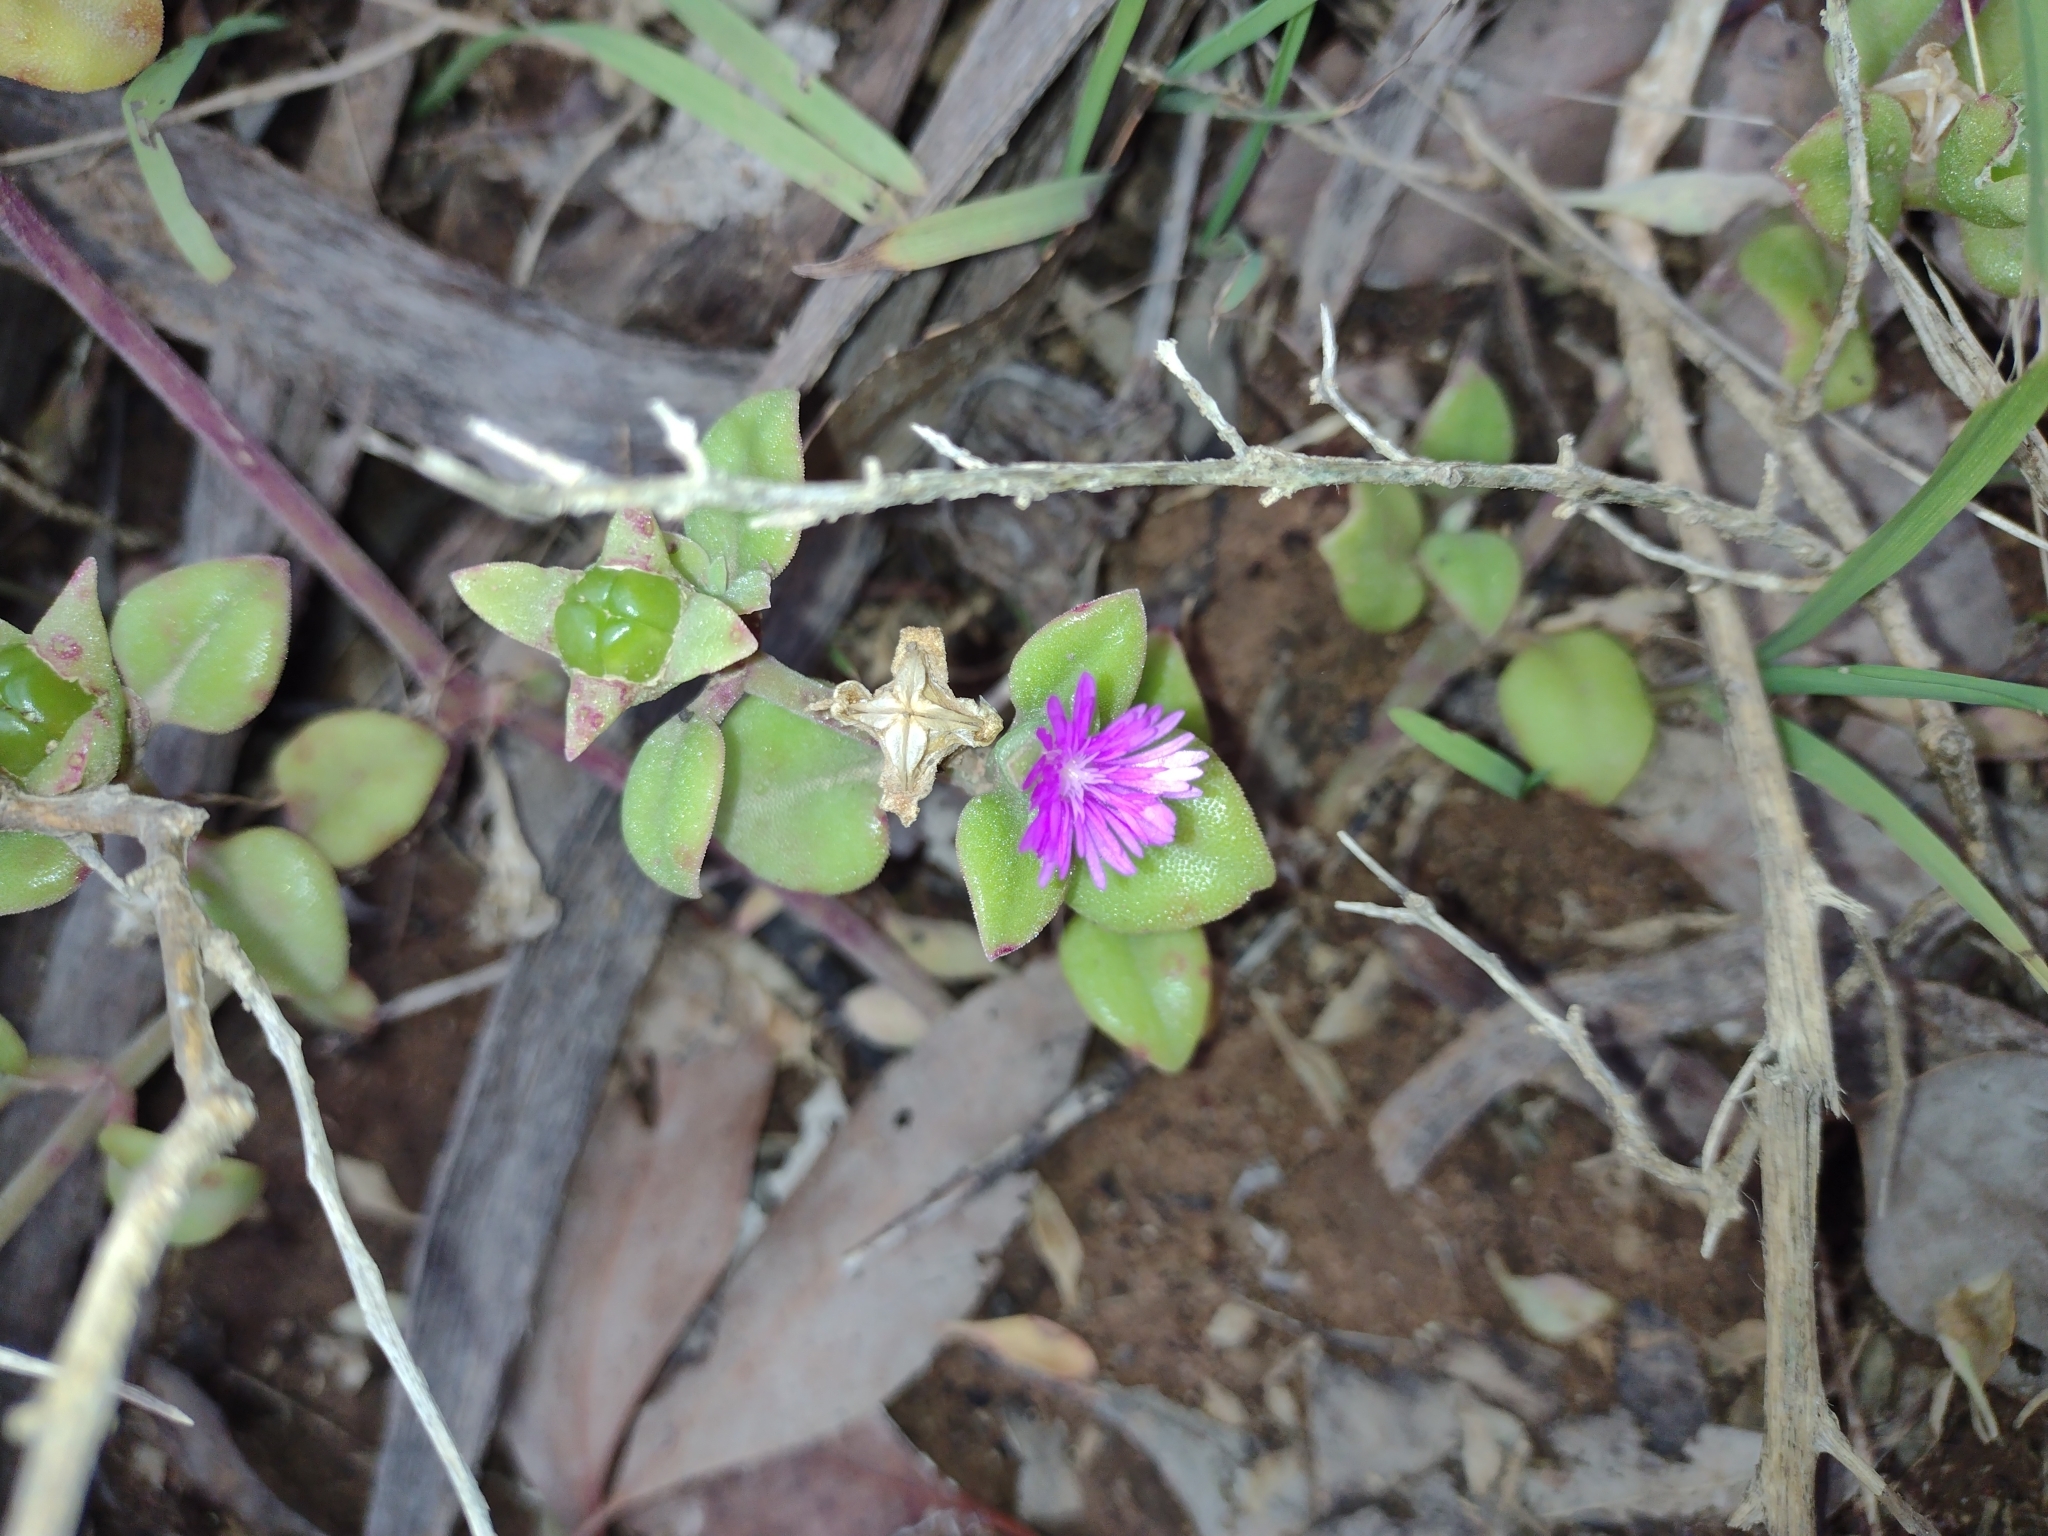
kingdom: Plantae
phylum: Tracheophyta
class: Magnoliopsida
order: Caryophyllales
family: Aizoaceae
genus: Mesembryanthemum
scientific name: Mesembryanthemum cordifolium
